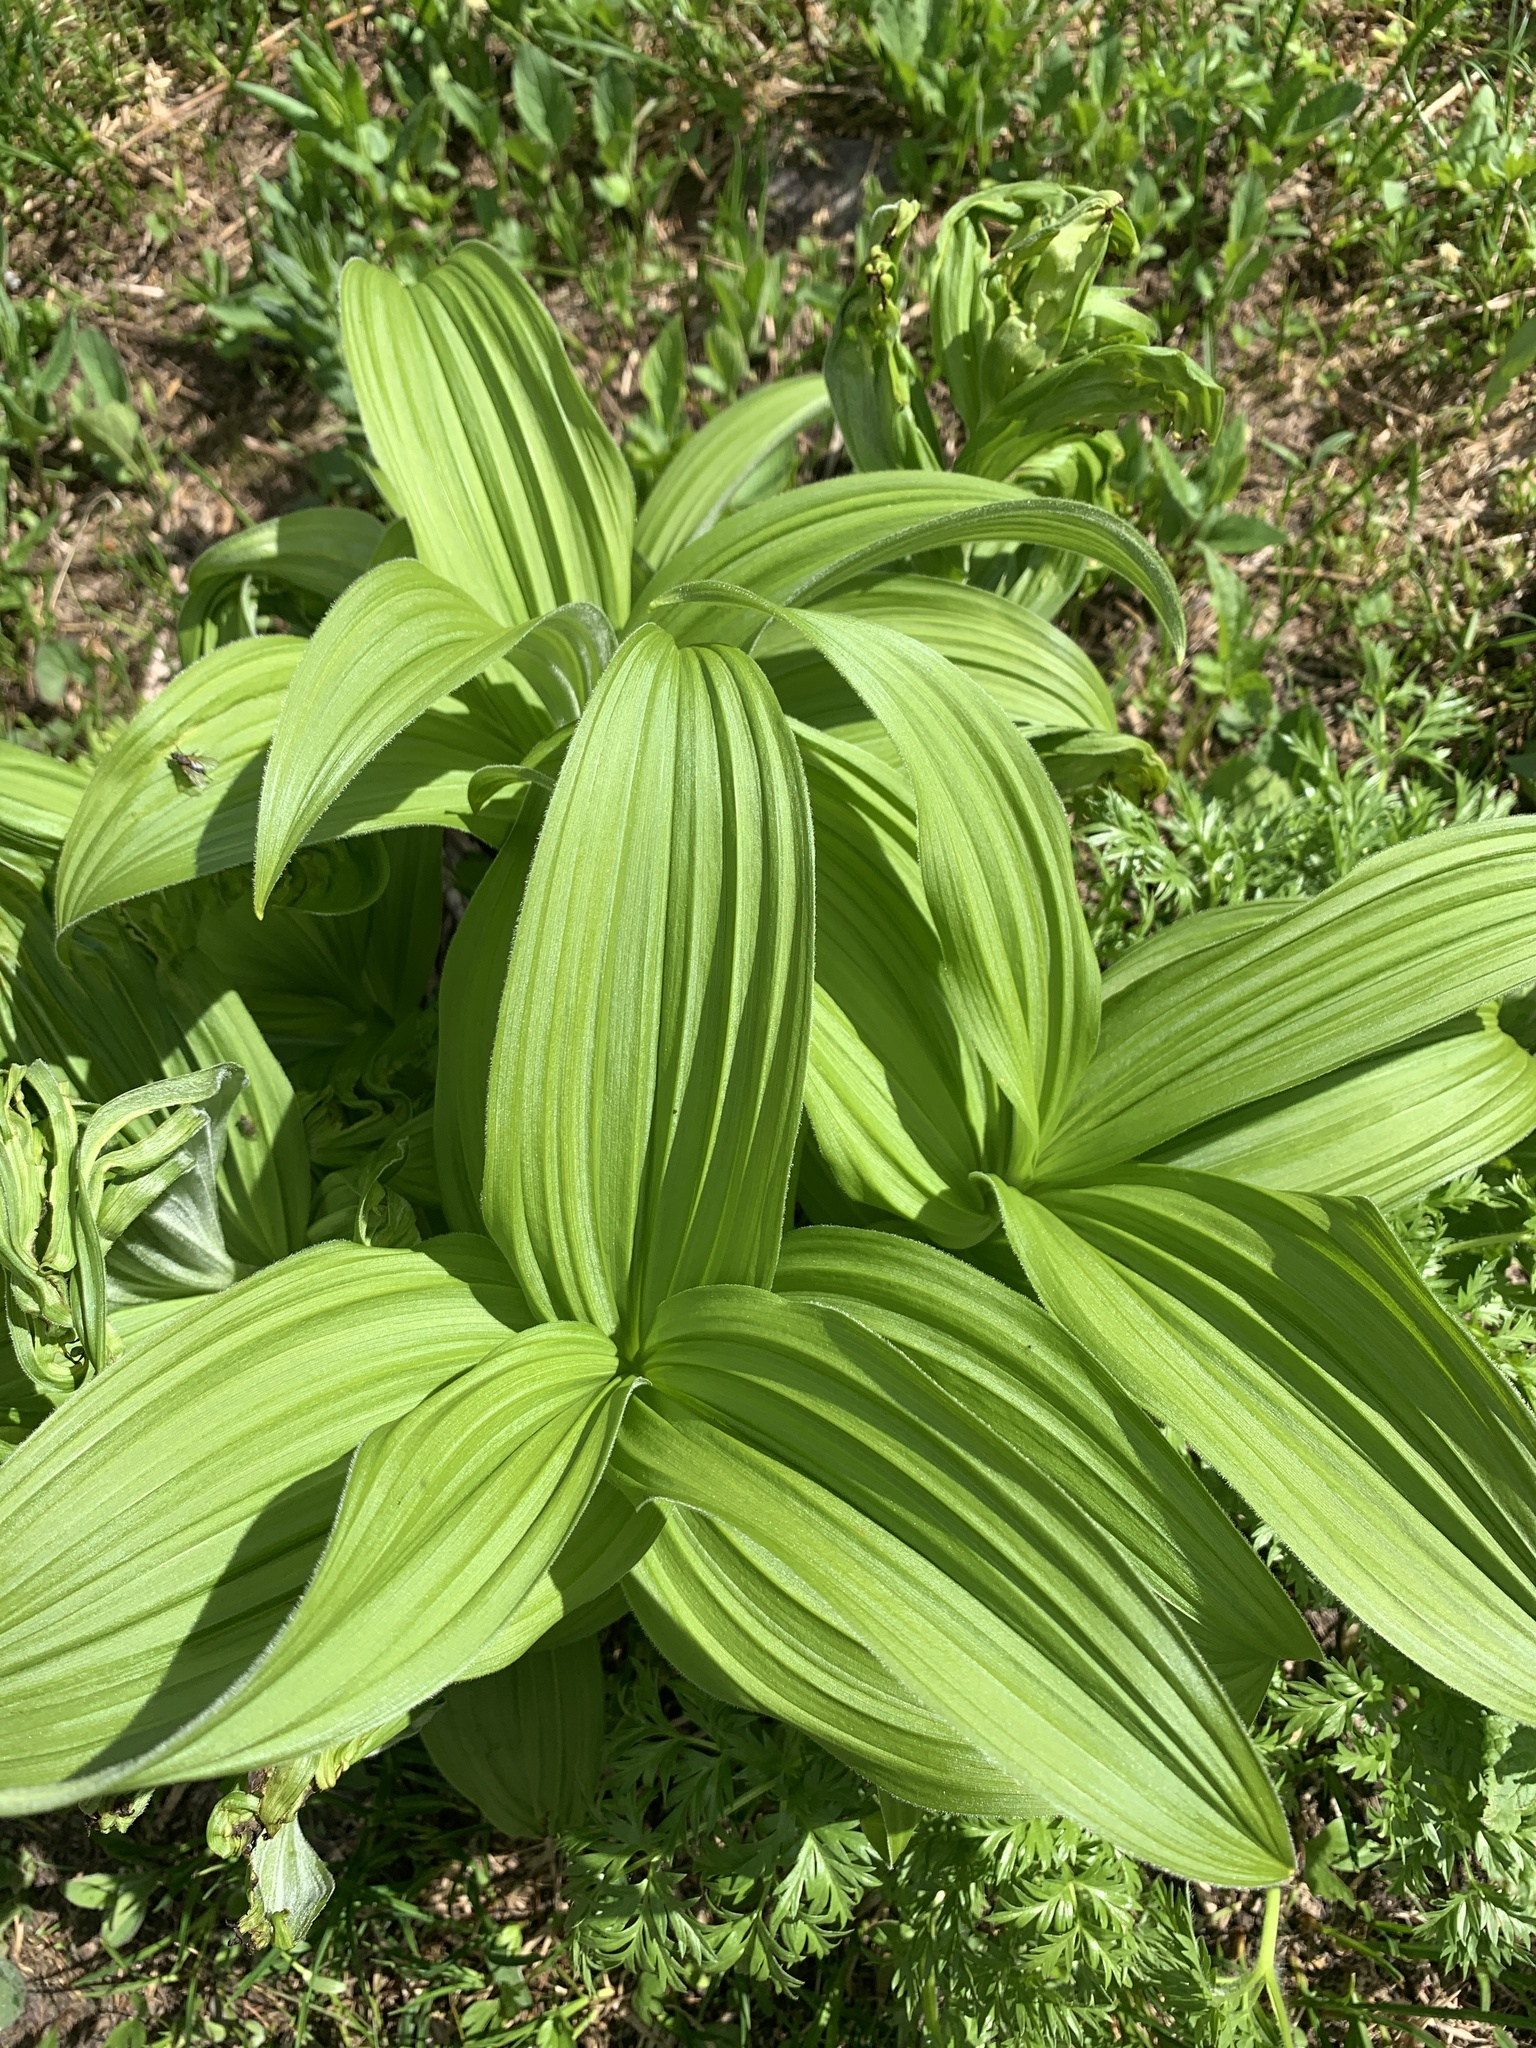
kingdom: Plantae
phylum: Tracheophyta
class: Liliopsida
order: Liliales
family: Melanthiaceae
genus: Veratrum
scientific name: Veratrum viride
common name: American false hellebore
